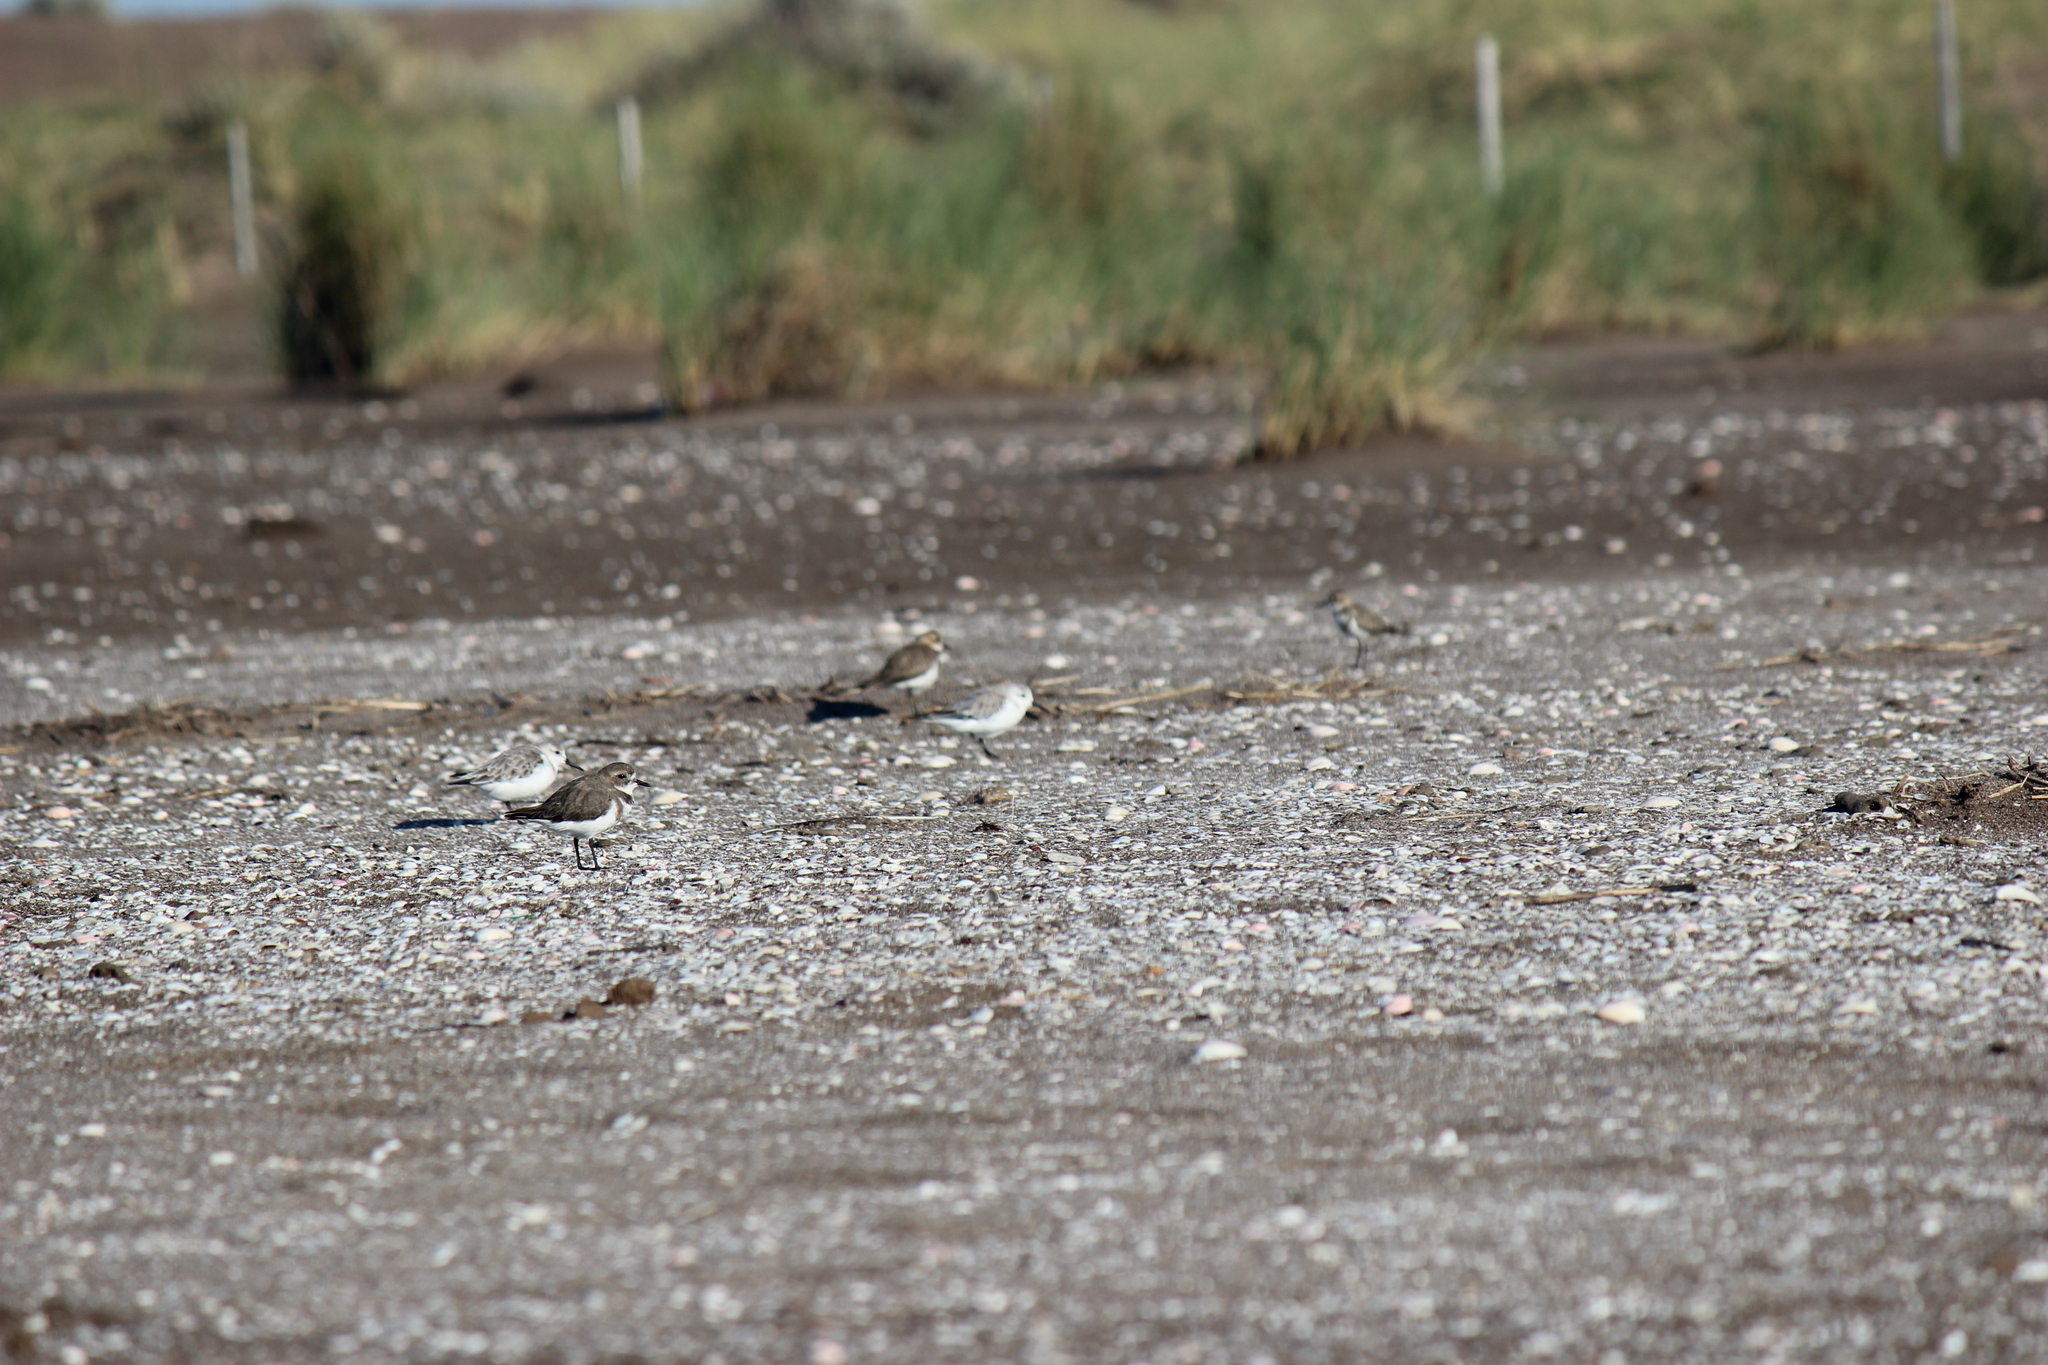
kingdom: Animalia
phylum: Chordata
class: Aves
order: Charadriiformes
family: Charadriidae
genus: Anarhynchus
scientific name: Anarhynchus
